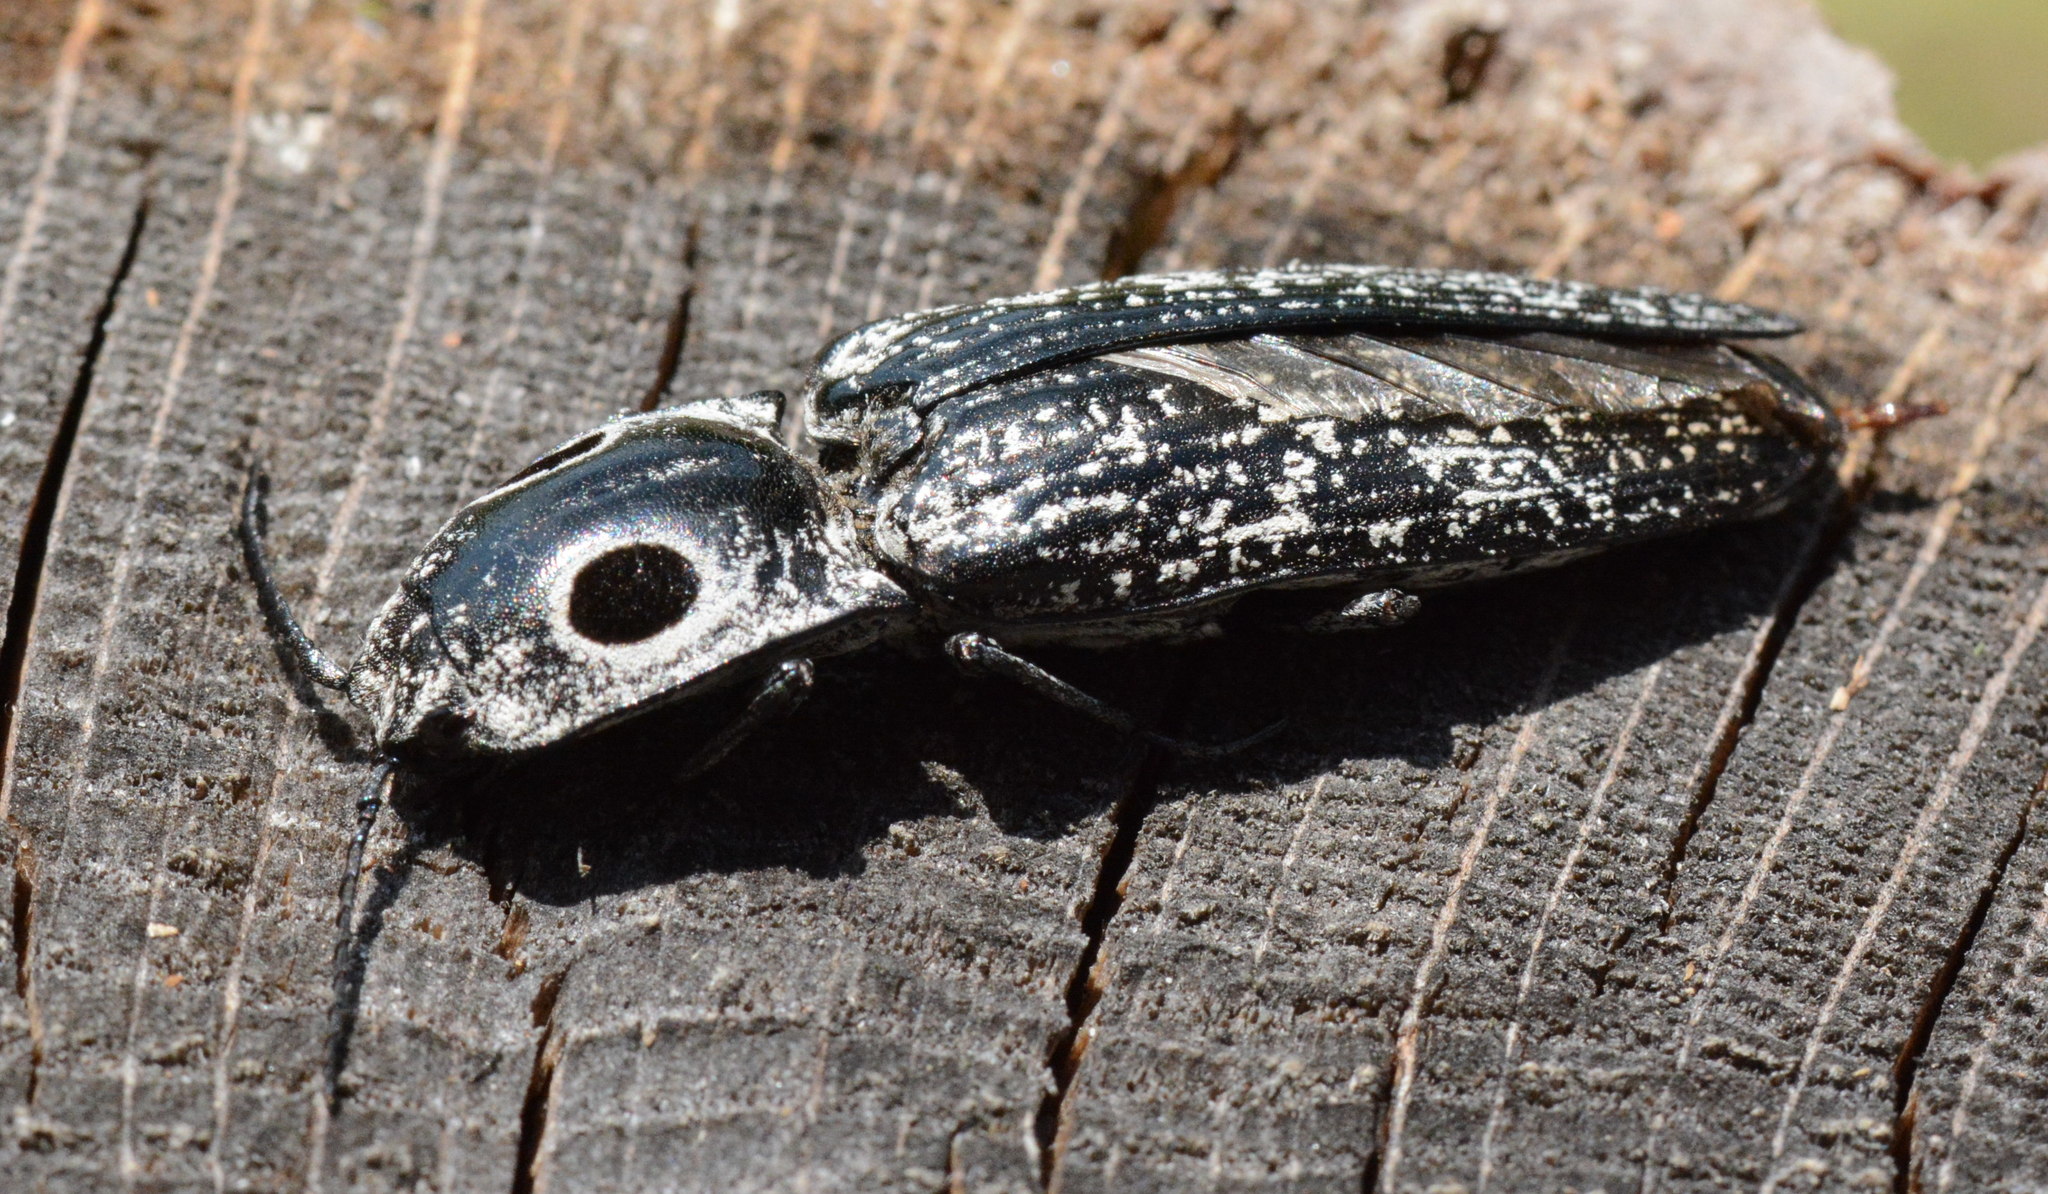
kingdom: Animalia
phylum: Arthropoda
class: Insecta
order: Coleoptera
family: Elateridae
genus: Alaus
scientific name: Alaus oculatus
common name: Eastern eyed click beetle
